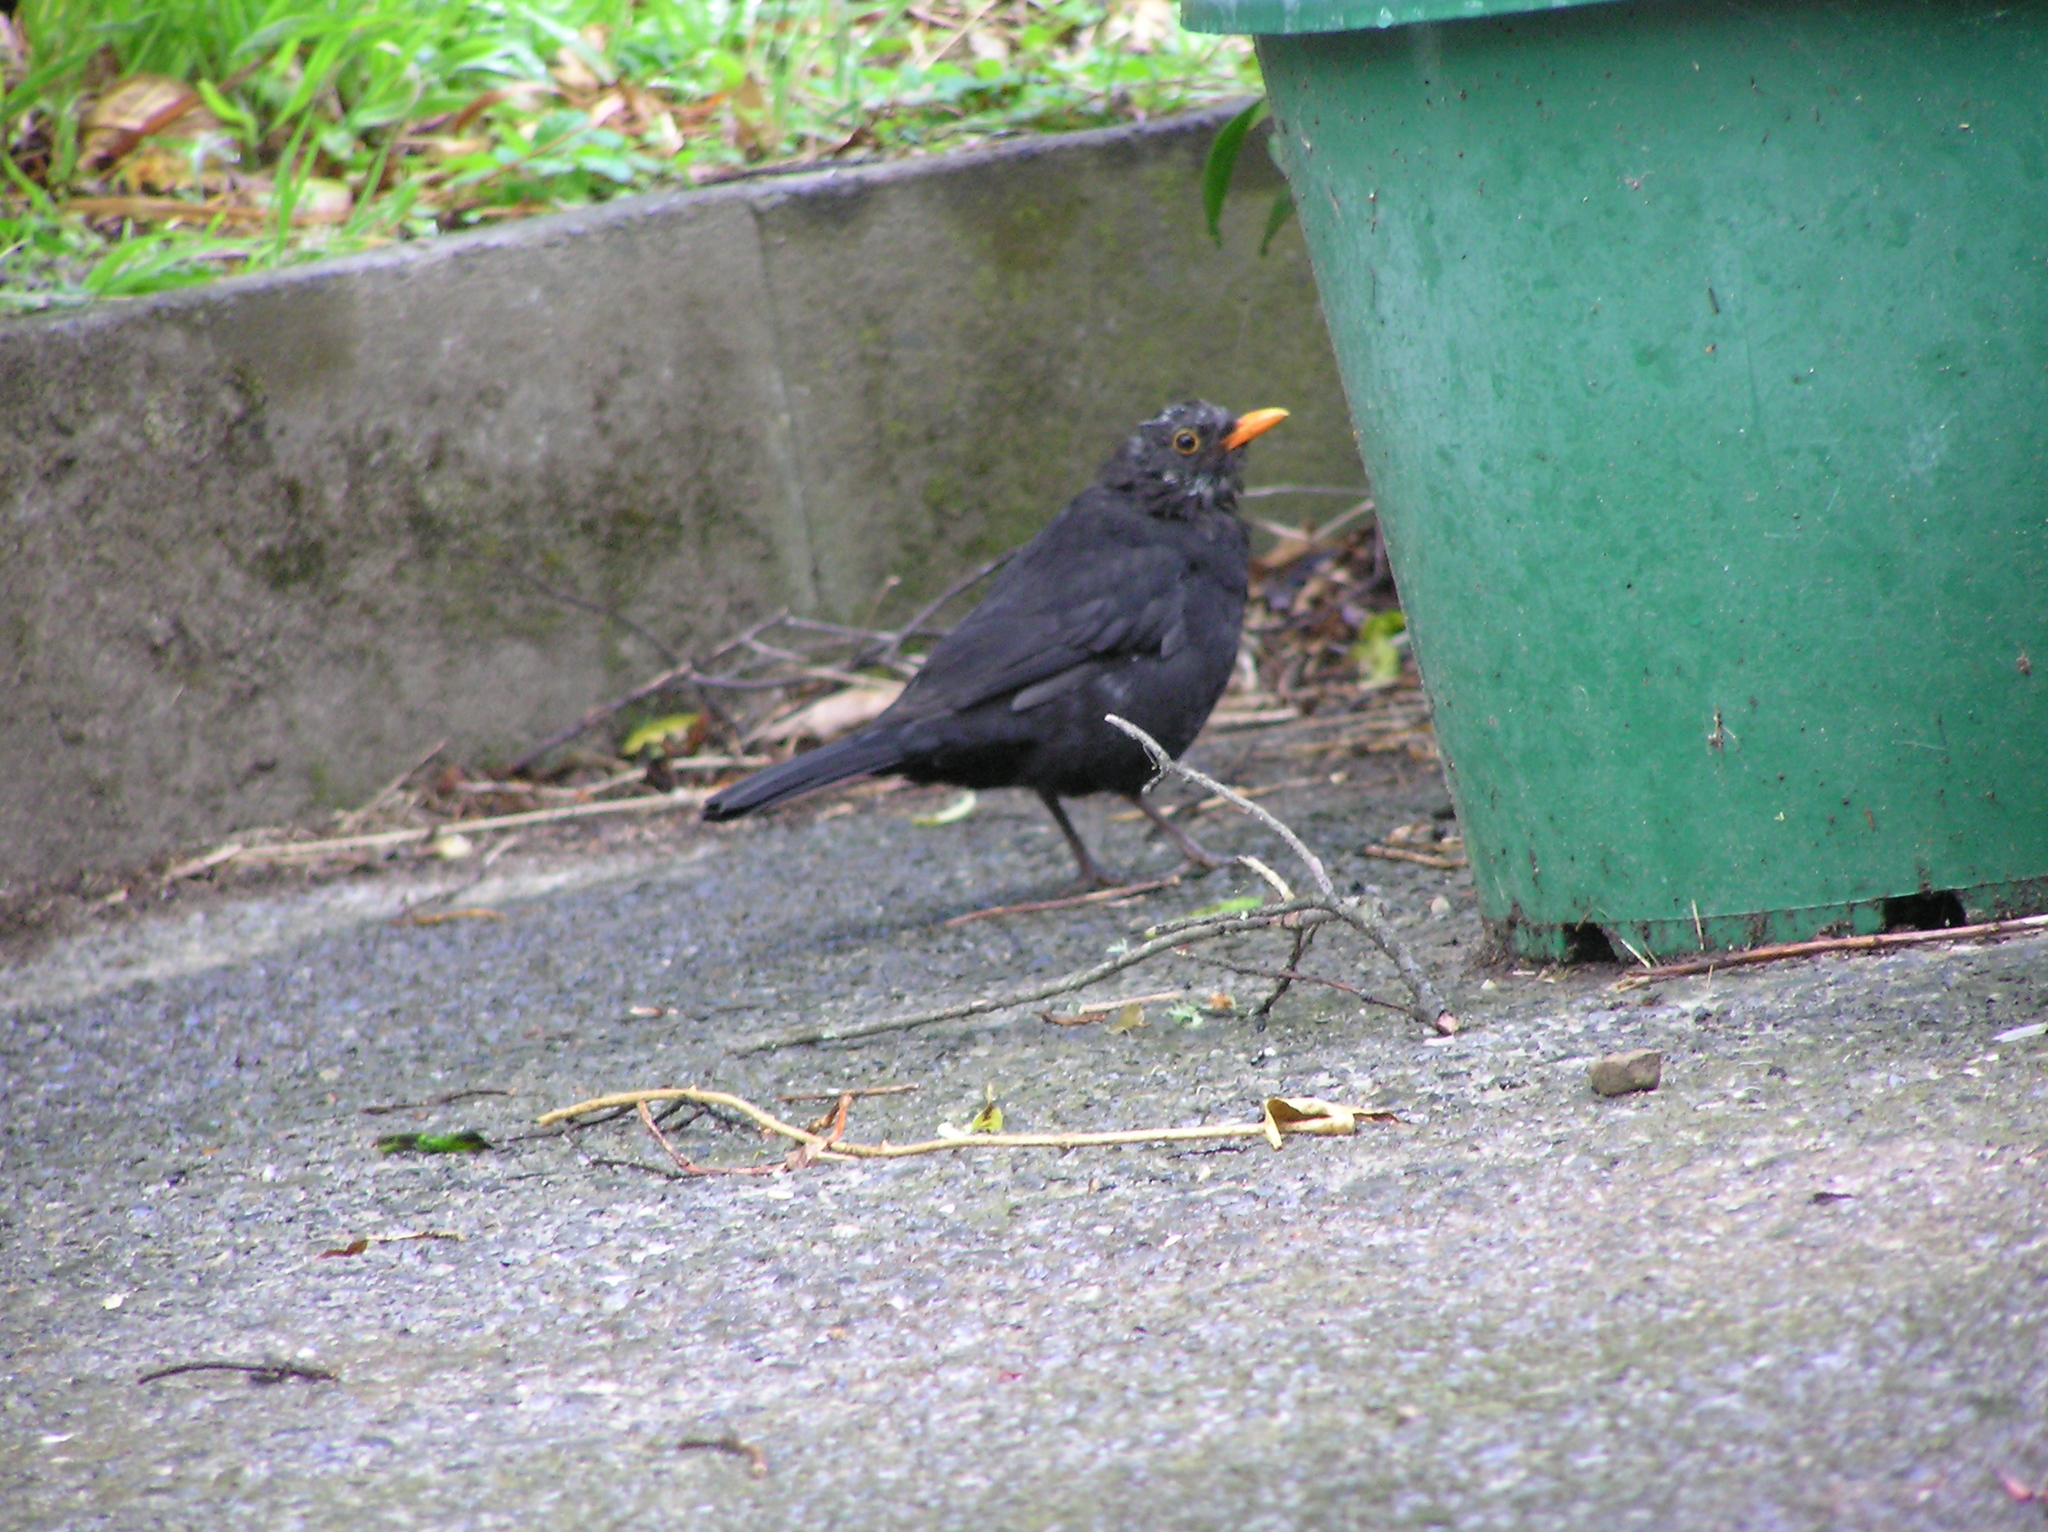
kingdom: Animalia
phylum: Chordata
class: Aves
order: Passeriformes
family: Turdidae
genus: Turdus
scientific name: Turdus merula
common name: Common blackbird
